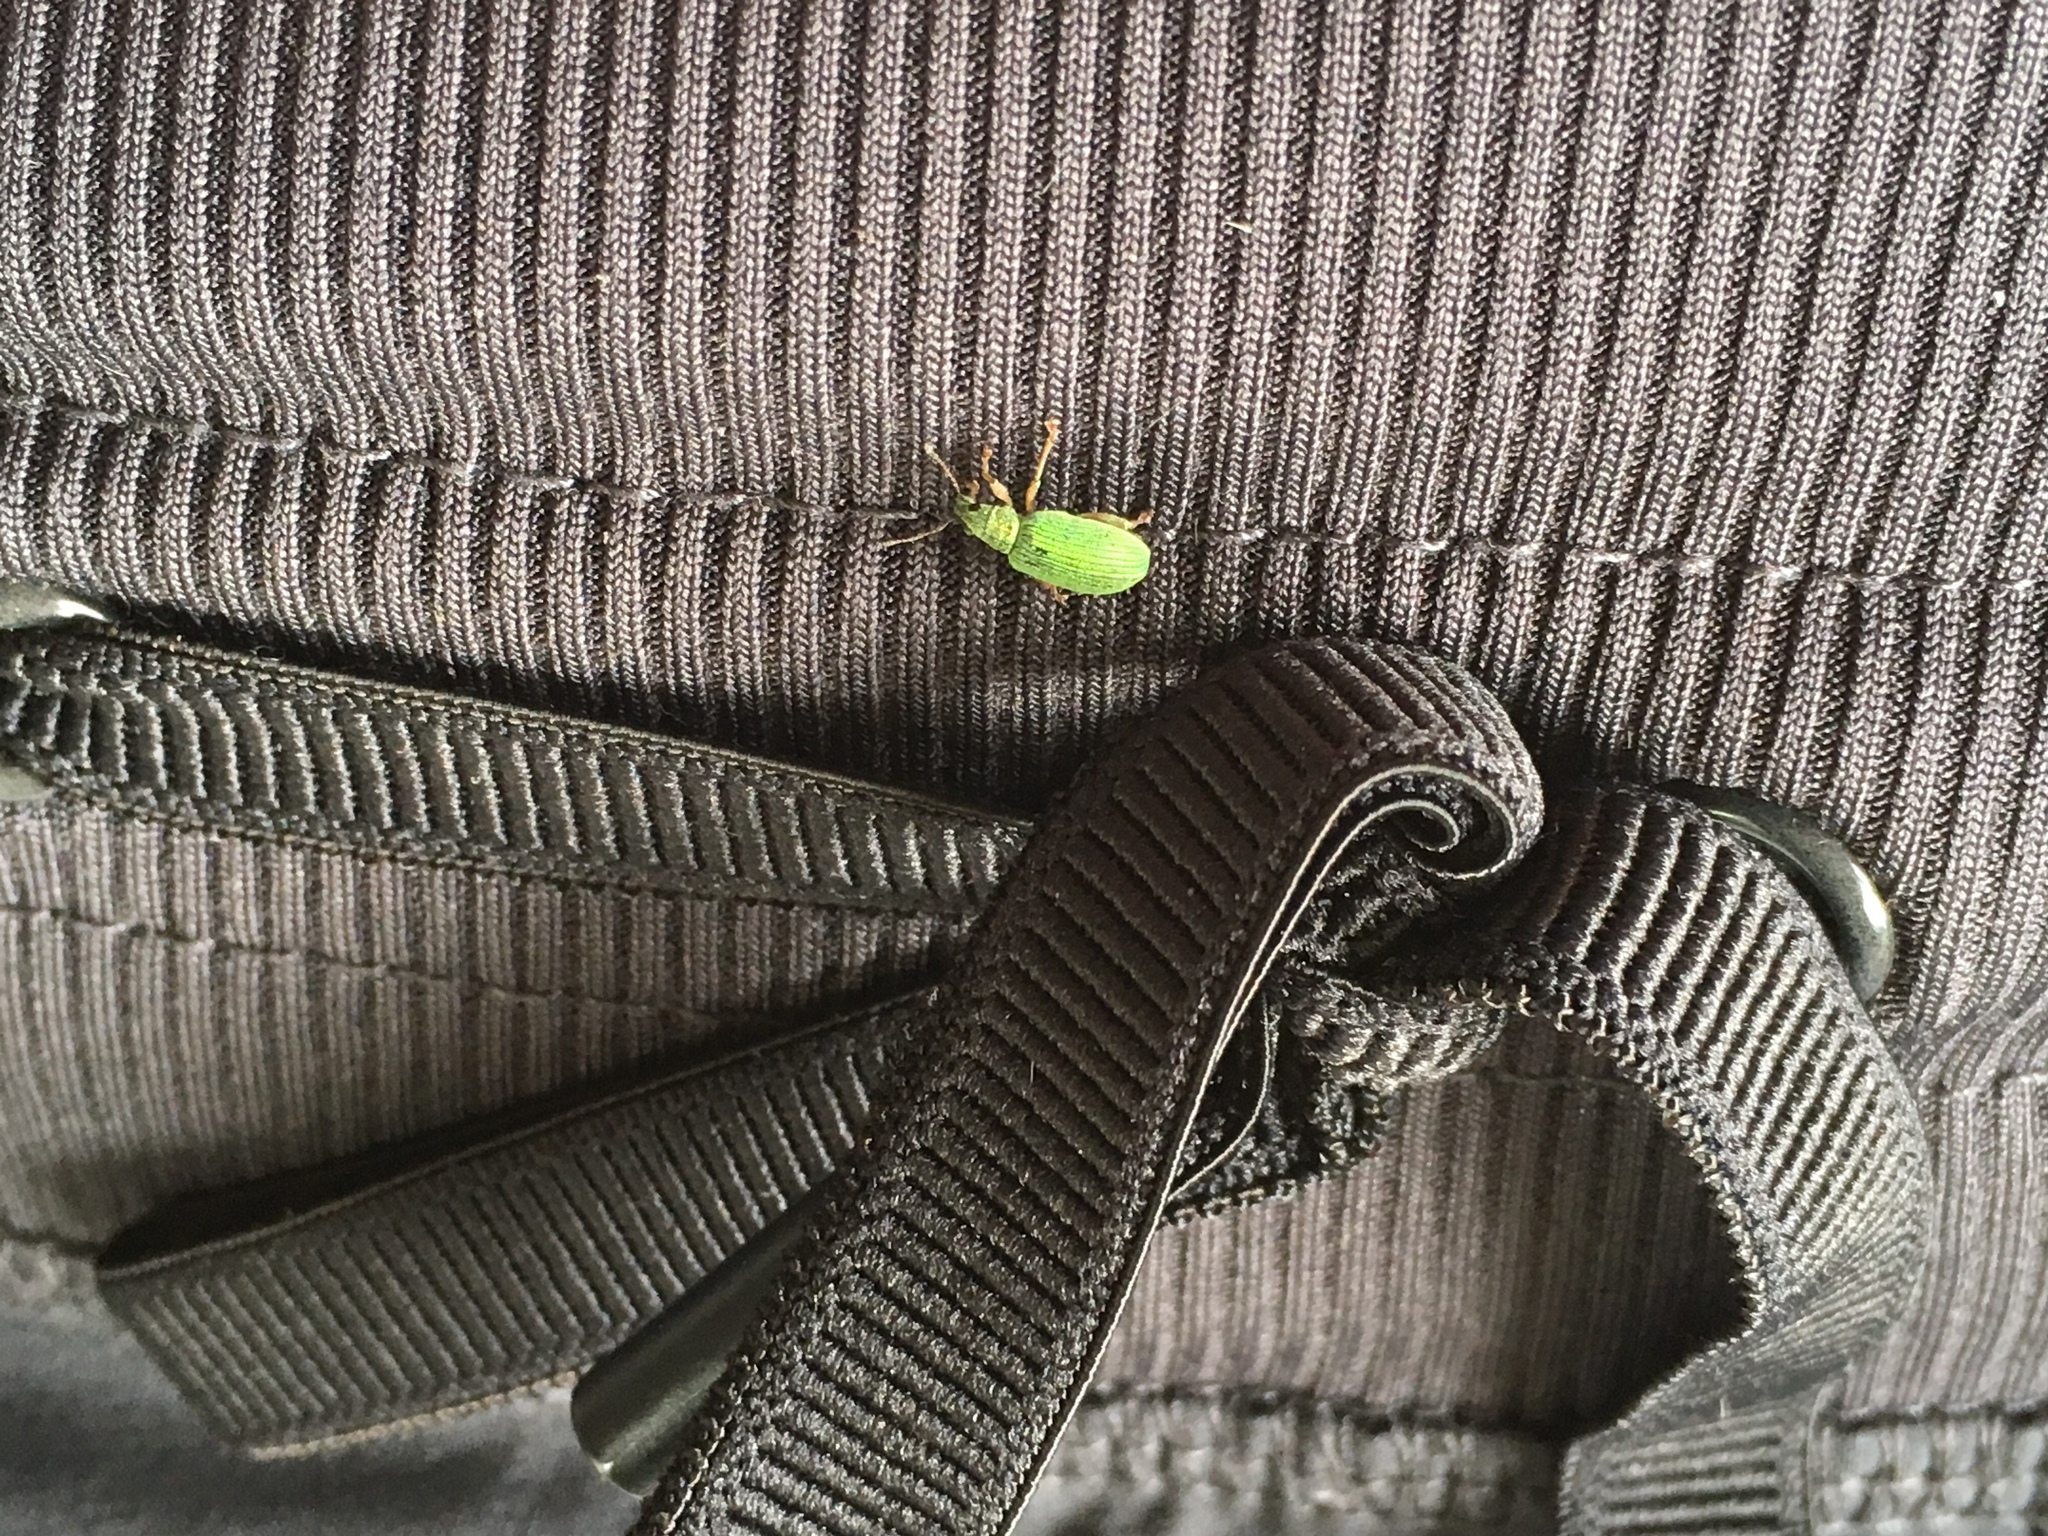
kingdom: Animalia
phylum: Arthropoda
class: Insecta
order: Coleoptera
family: Curculionidae
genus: Polydrusus
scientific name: Polydrusus formosus
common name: Weevil
